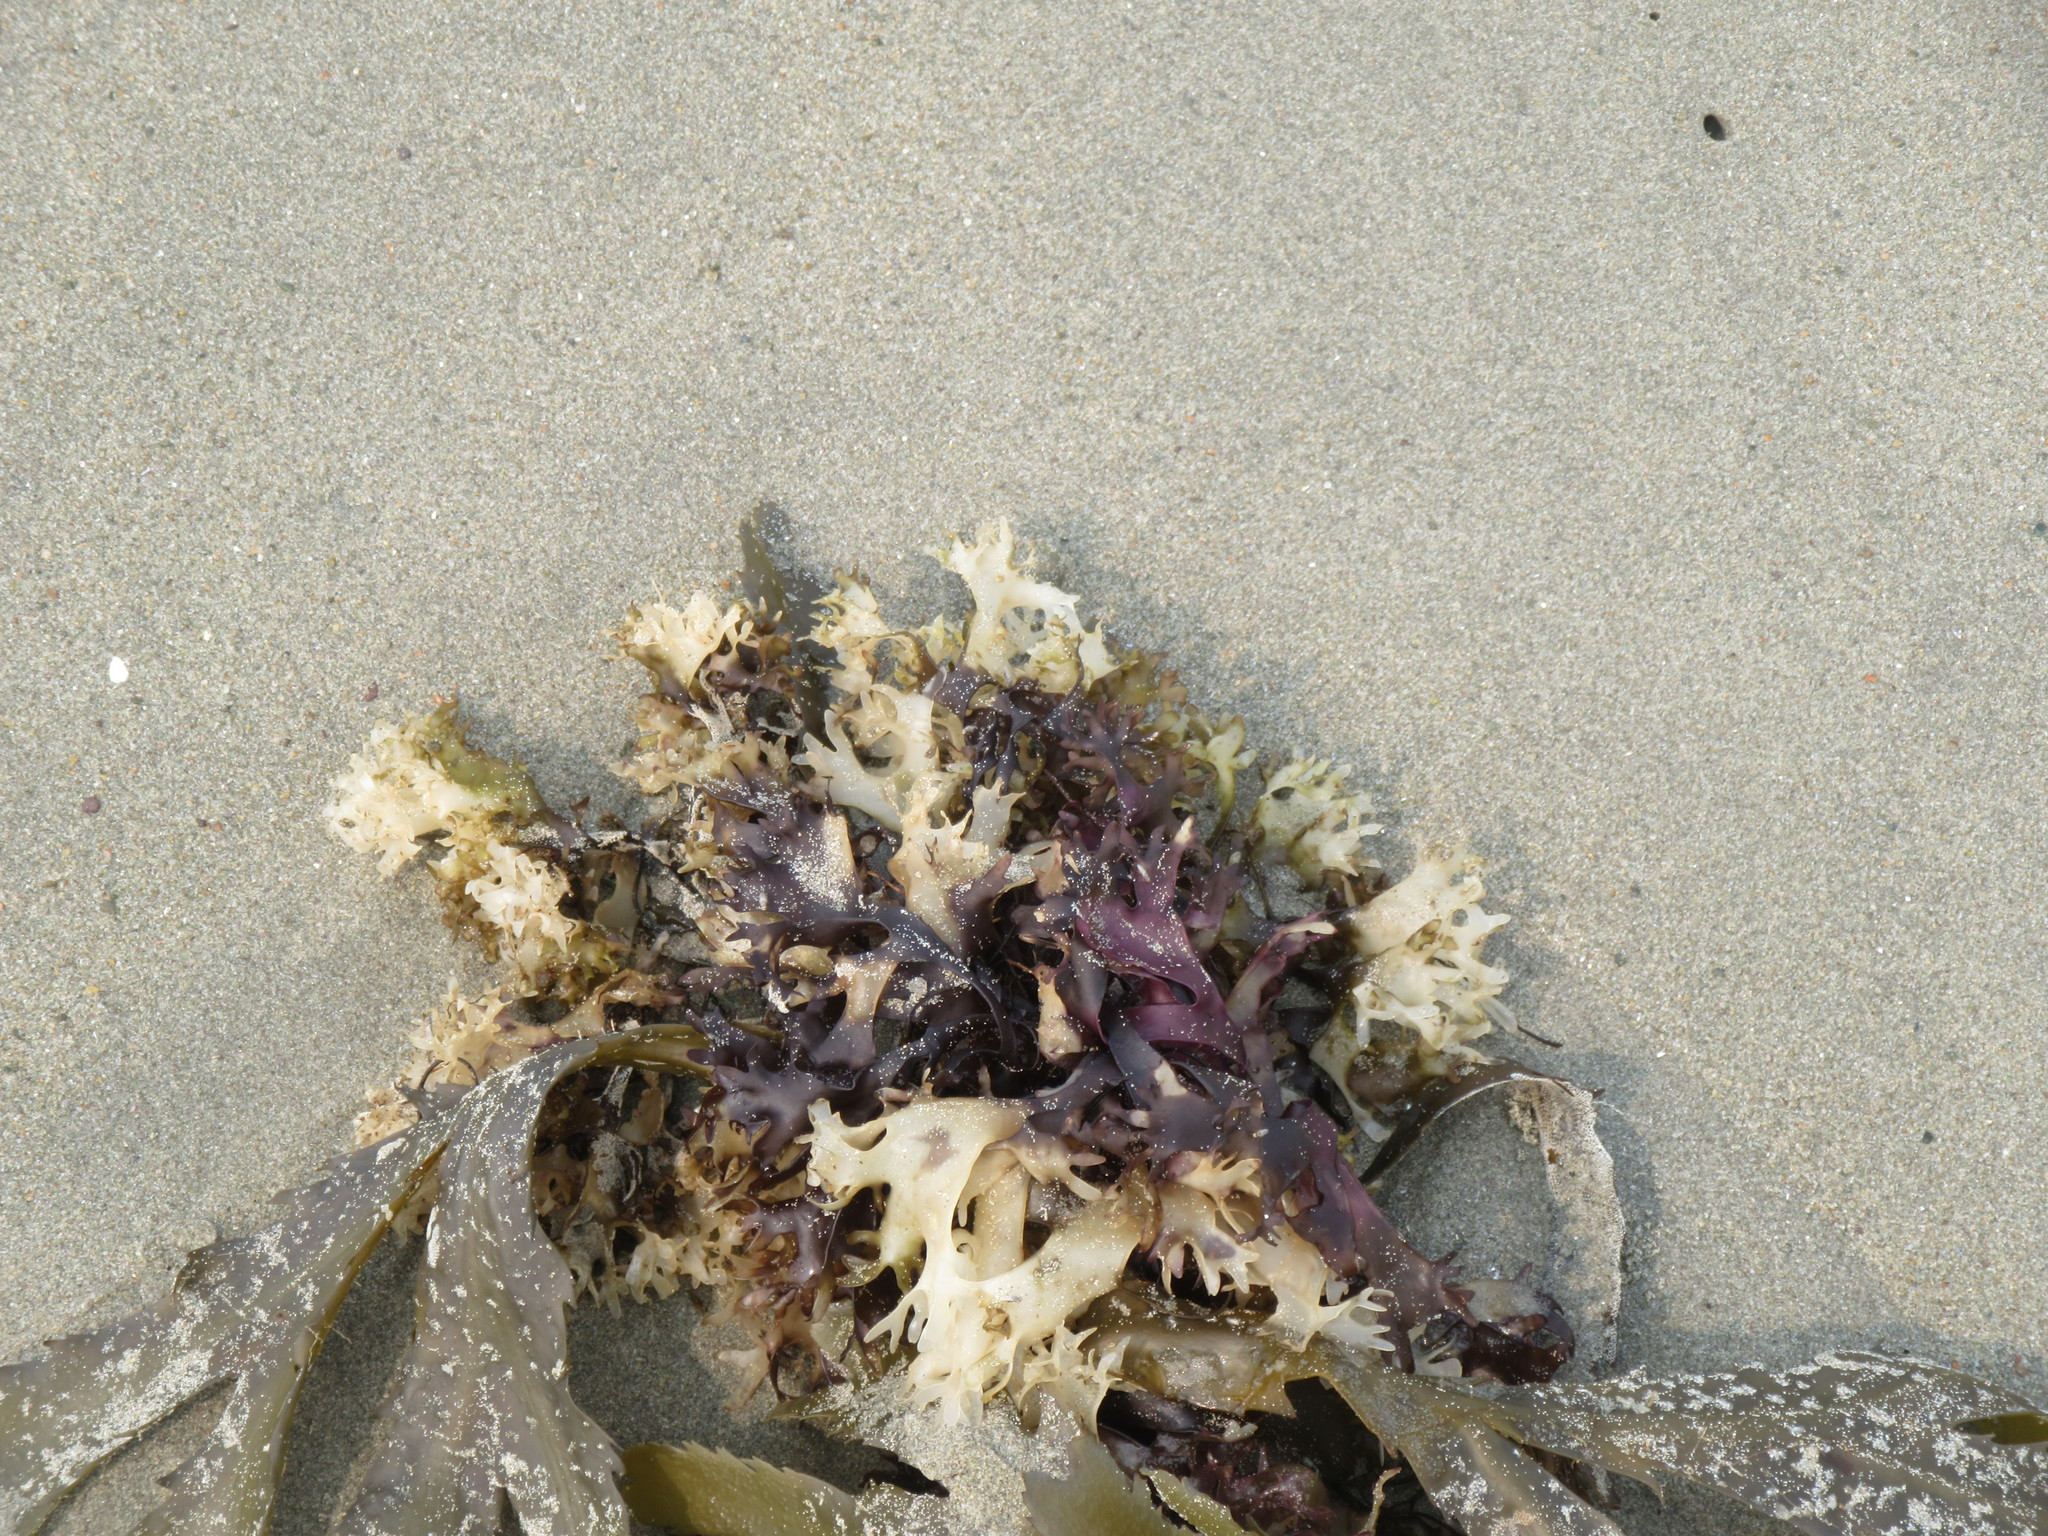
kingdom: Plantae
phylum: Rhodophyta
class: Florideophyceae
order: Gigartinales
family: Gigartinaceae
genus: Chondrus
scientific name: Chondrus crispus
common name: Carrageen
